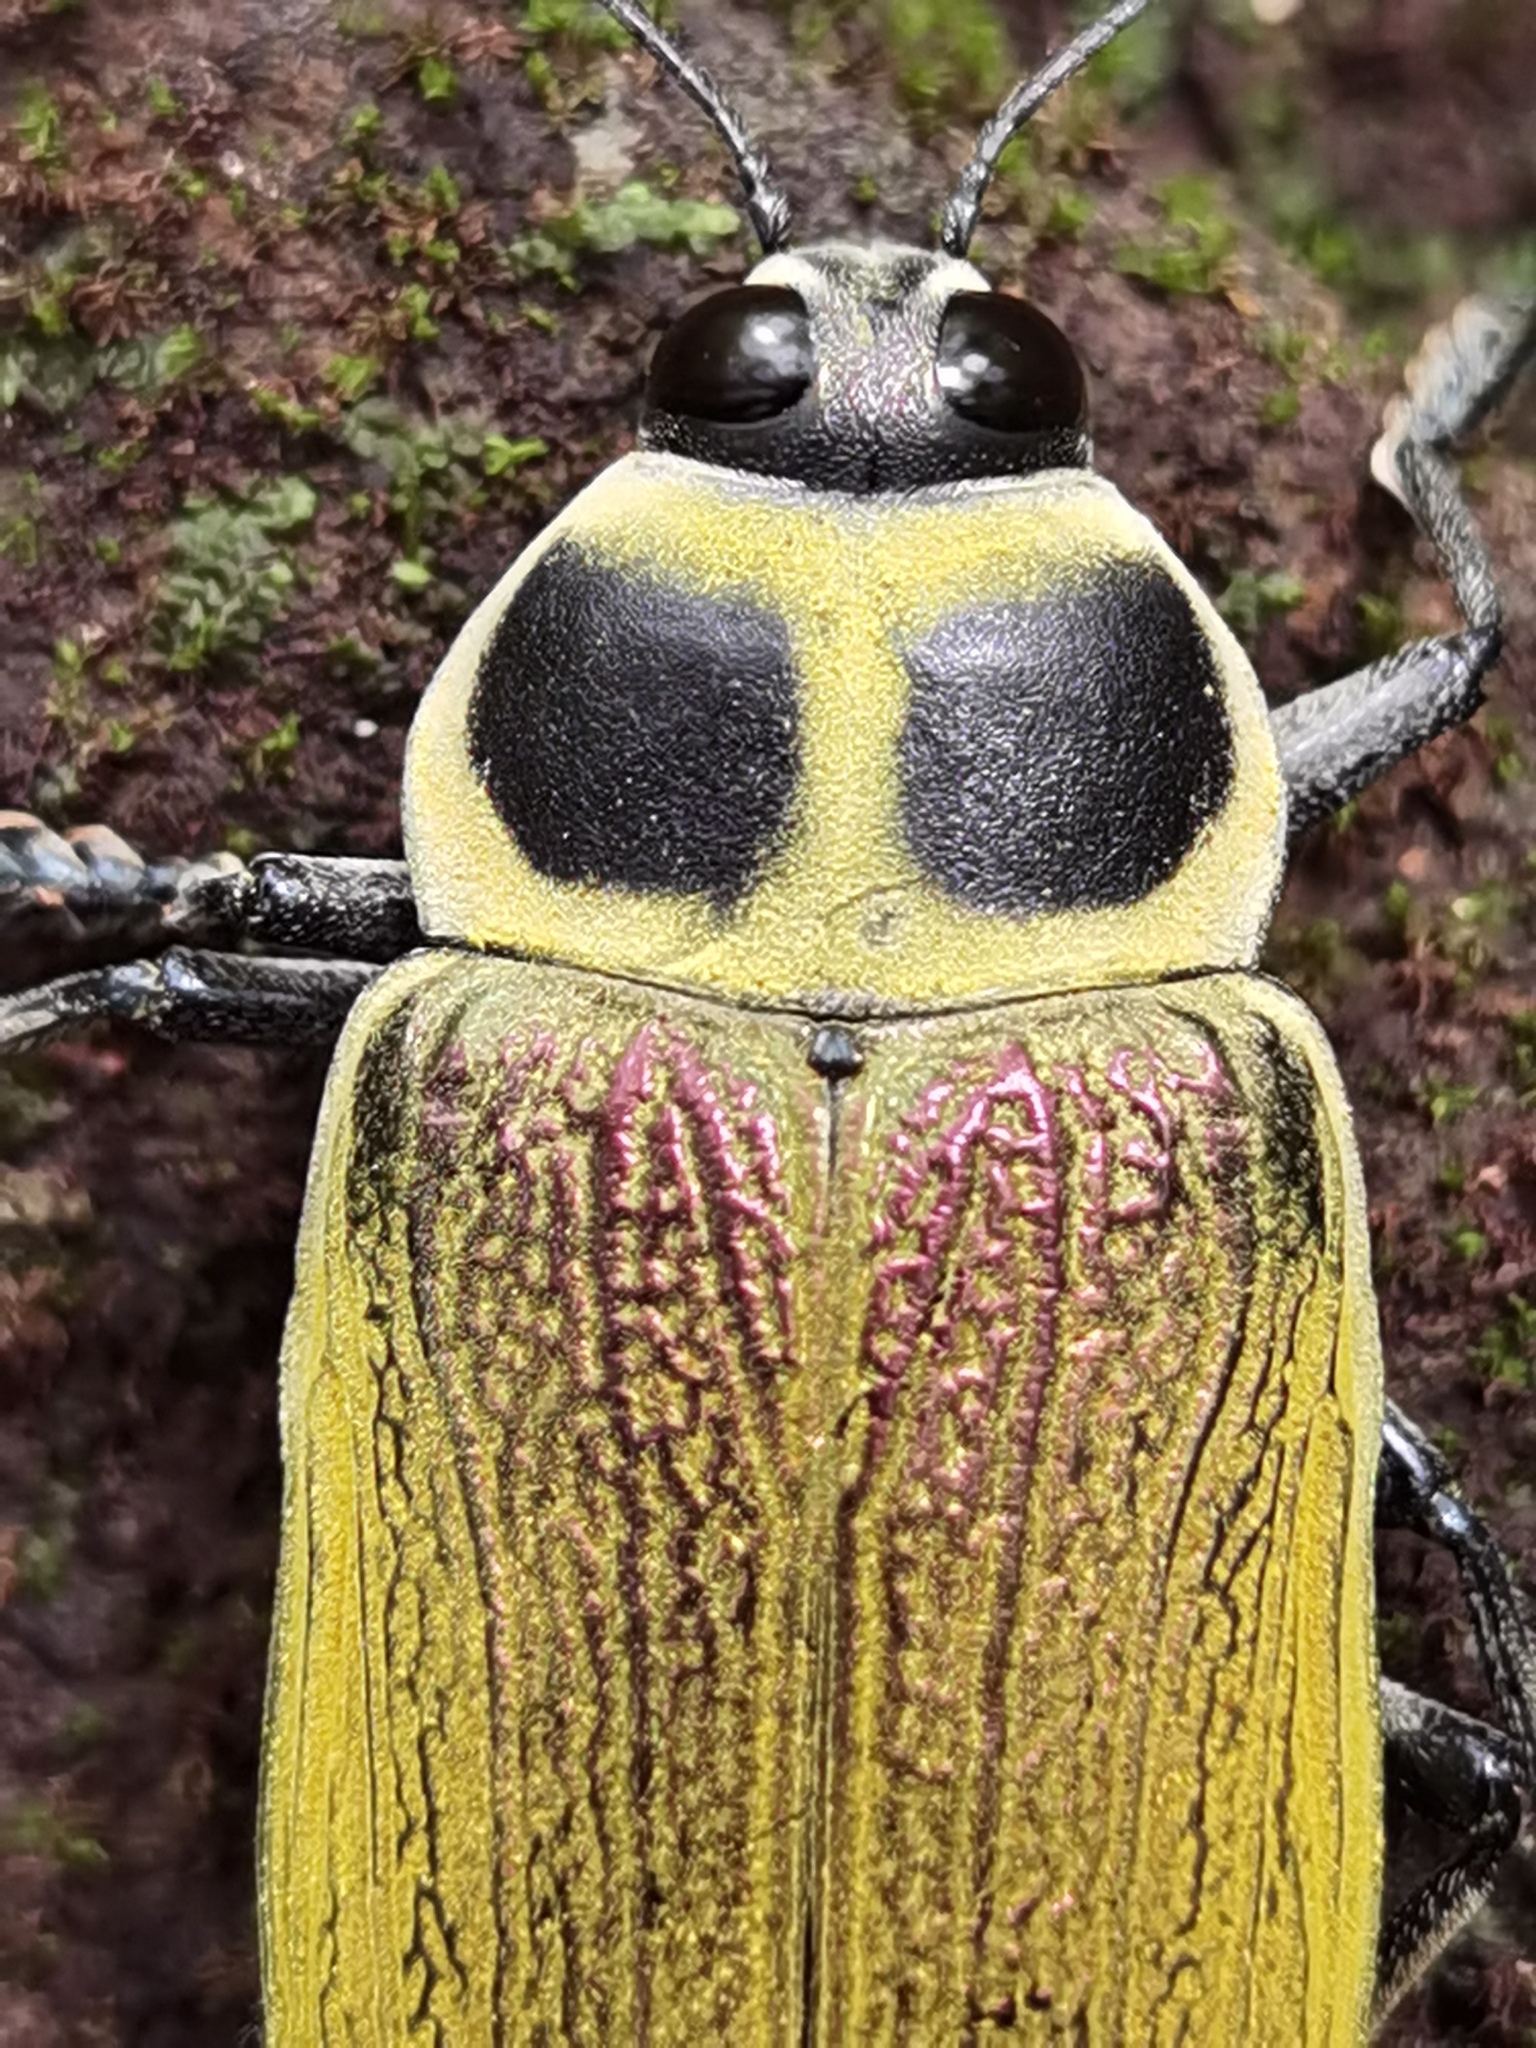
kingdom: Animalia
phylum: Arthropoda
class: Insecta
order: Coleoptera
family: Buprestidae
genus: Euchroma
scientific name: Euchroma giganteum
